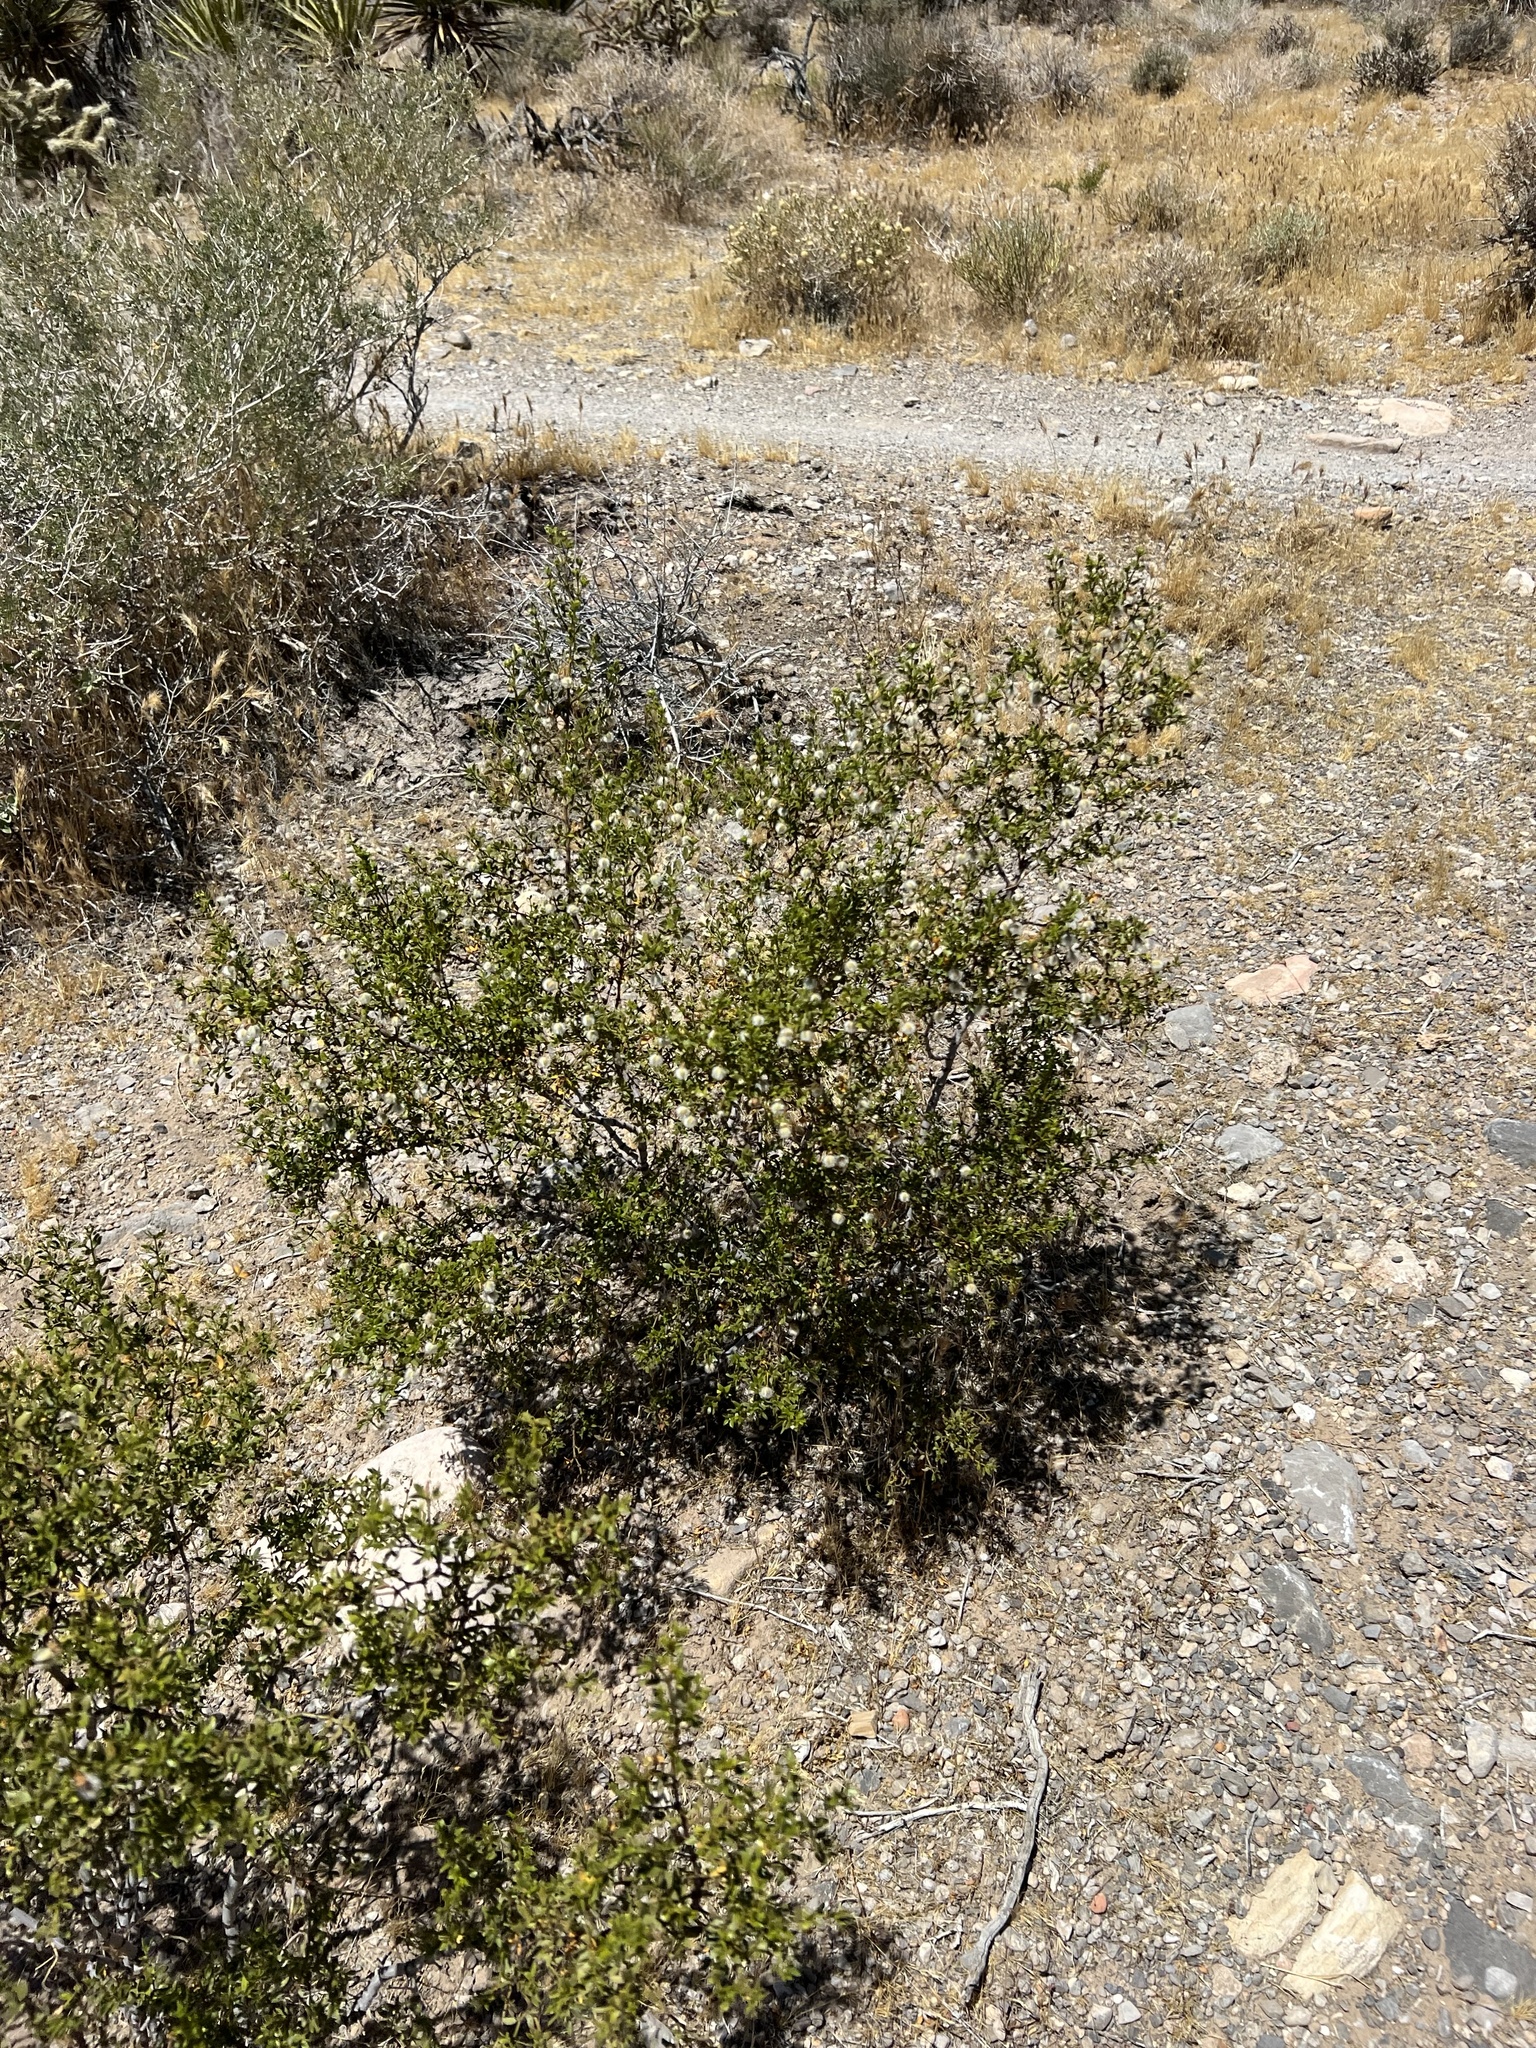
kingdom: Plantae
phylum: Tracheophyta
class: Magnoliopsida
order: Zygophyllales
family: Zygophyllaceae
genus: Larrea
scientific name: Larrea tridentata
